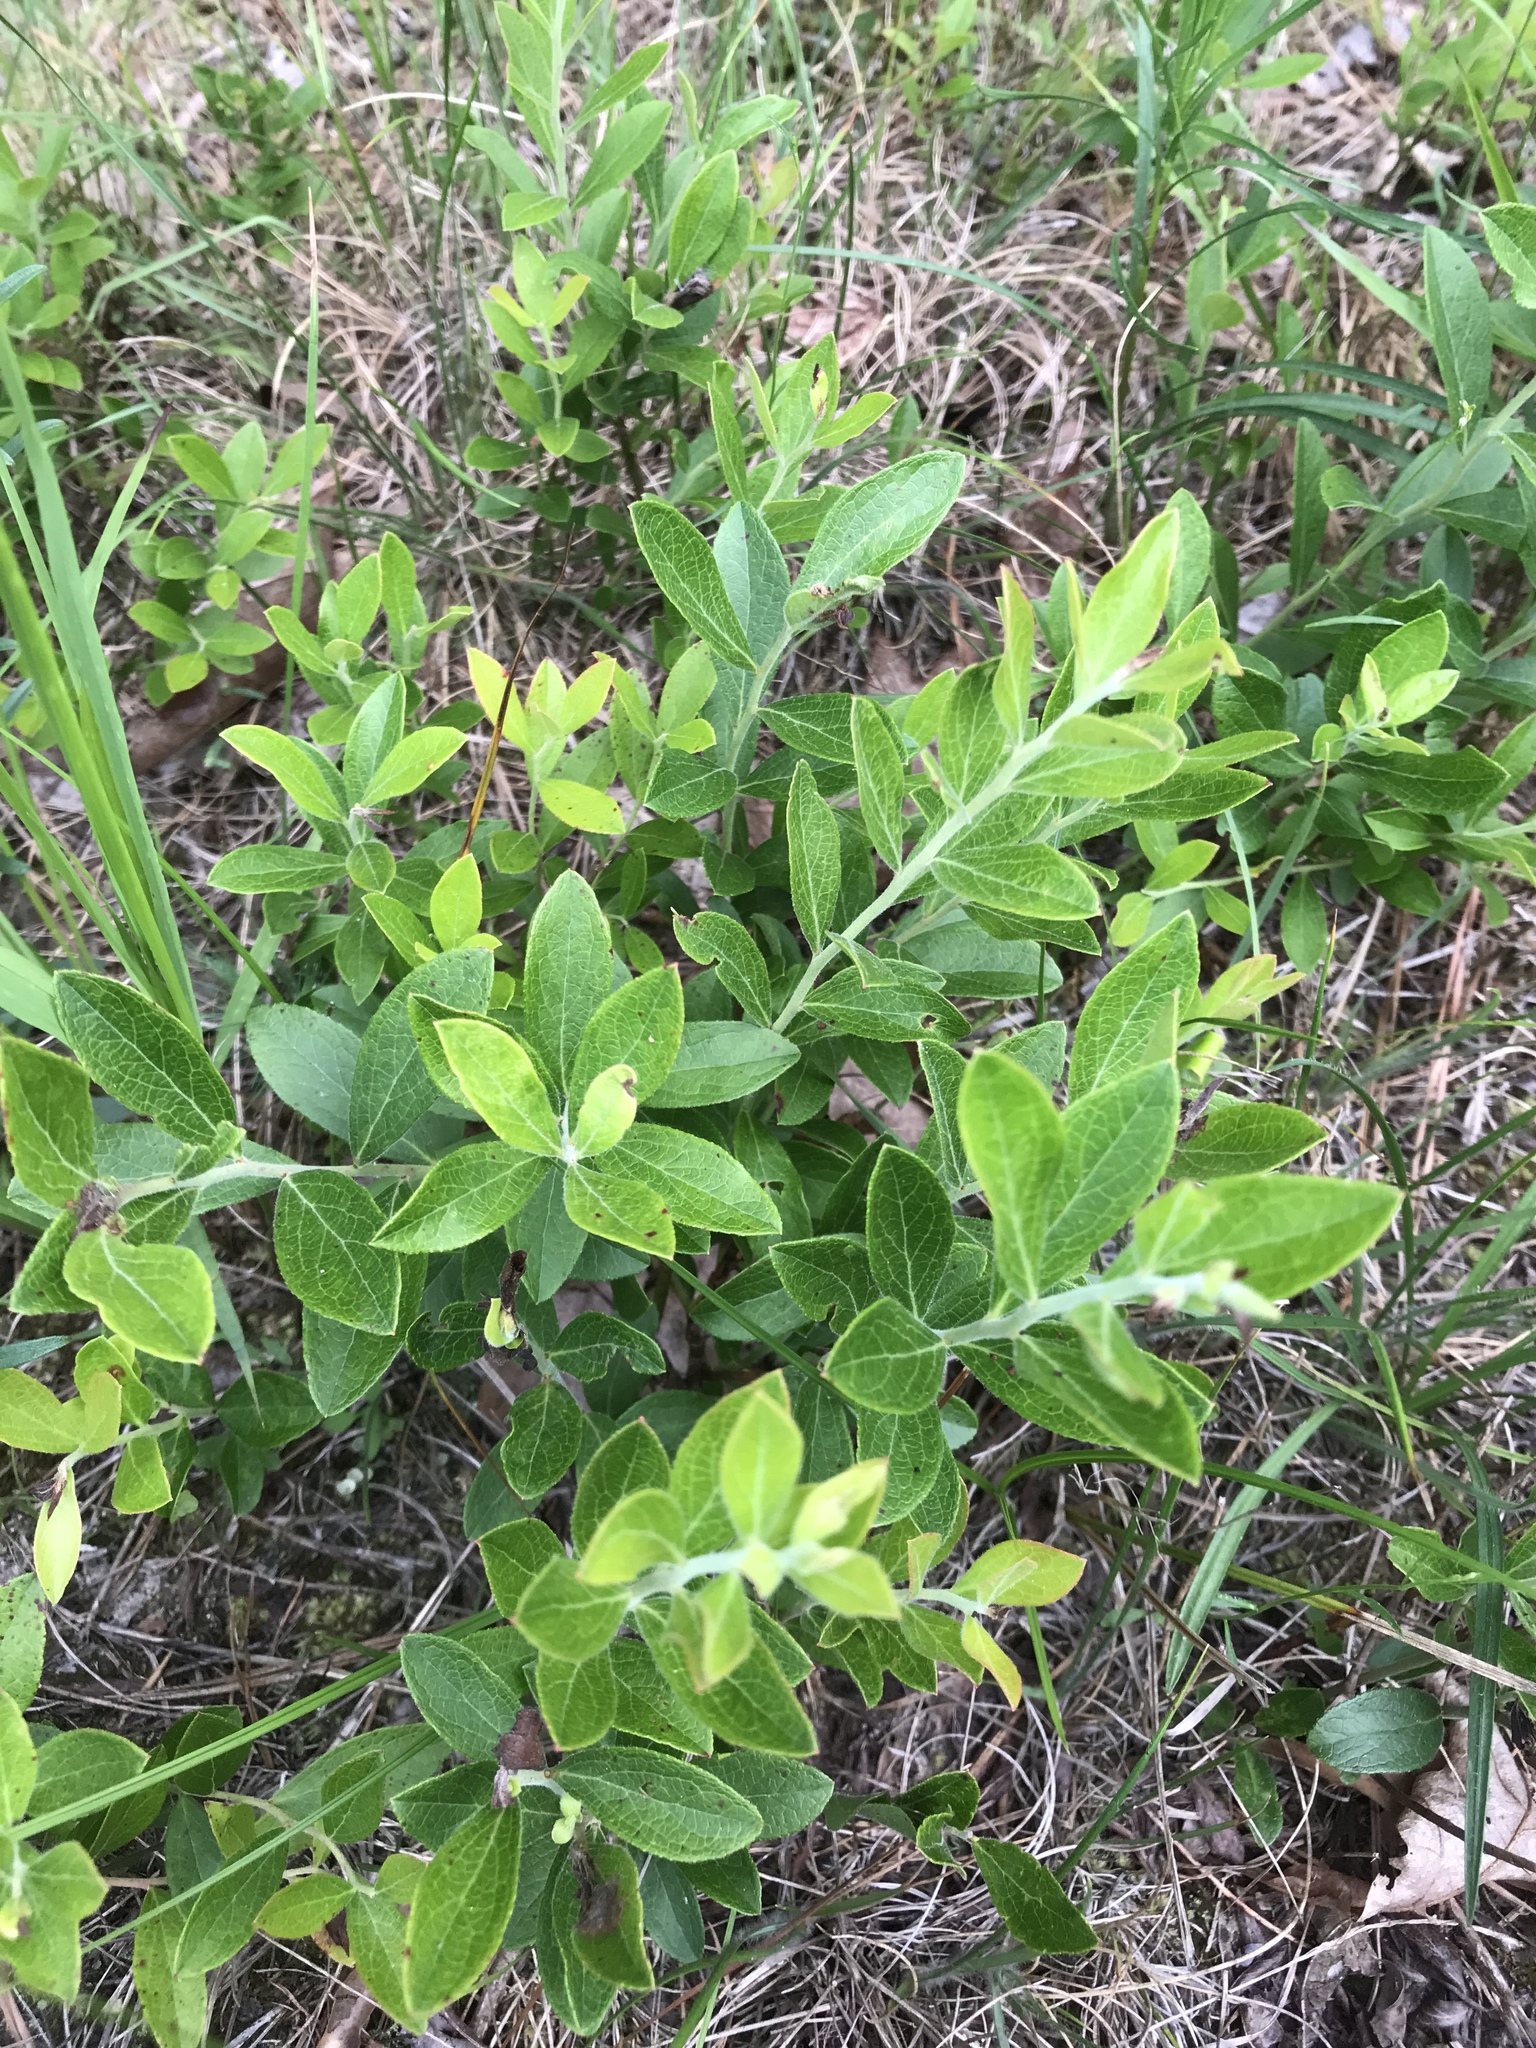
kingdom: Plantae
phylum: Tracheophyta
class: Magnoliopsida
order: Ericales
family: Ericaceae
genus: Vaccinium
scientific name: Vaccinium tenellum
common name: Southern blueberry
